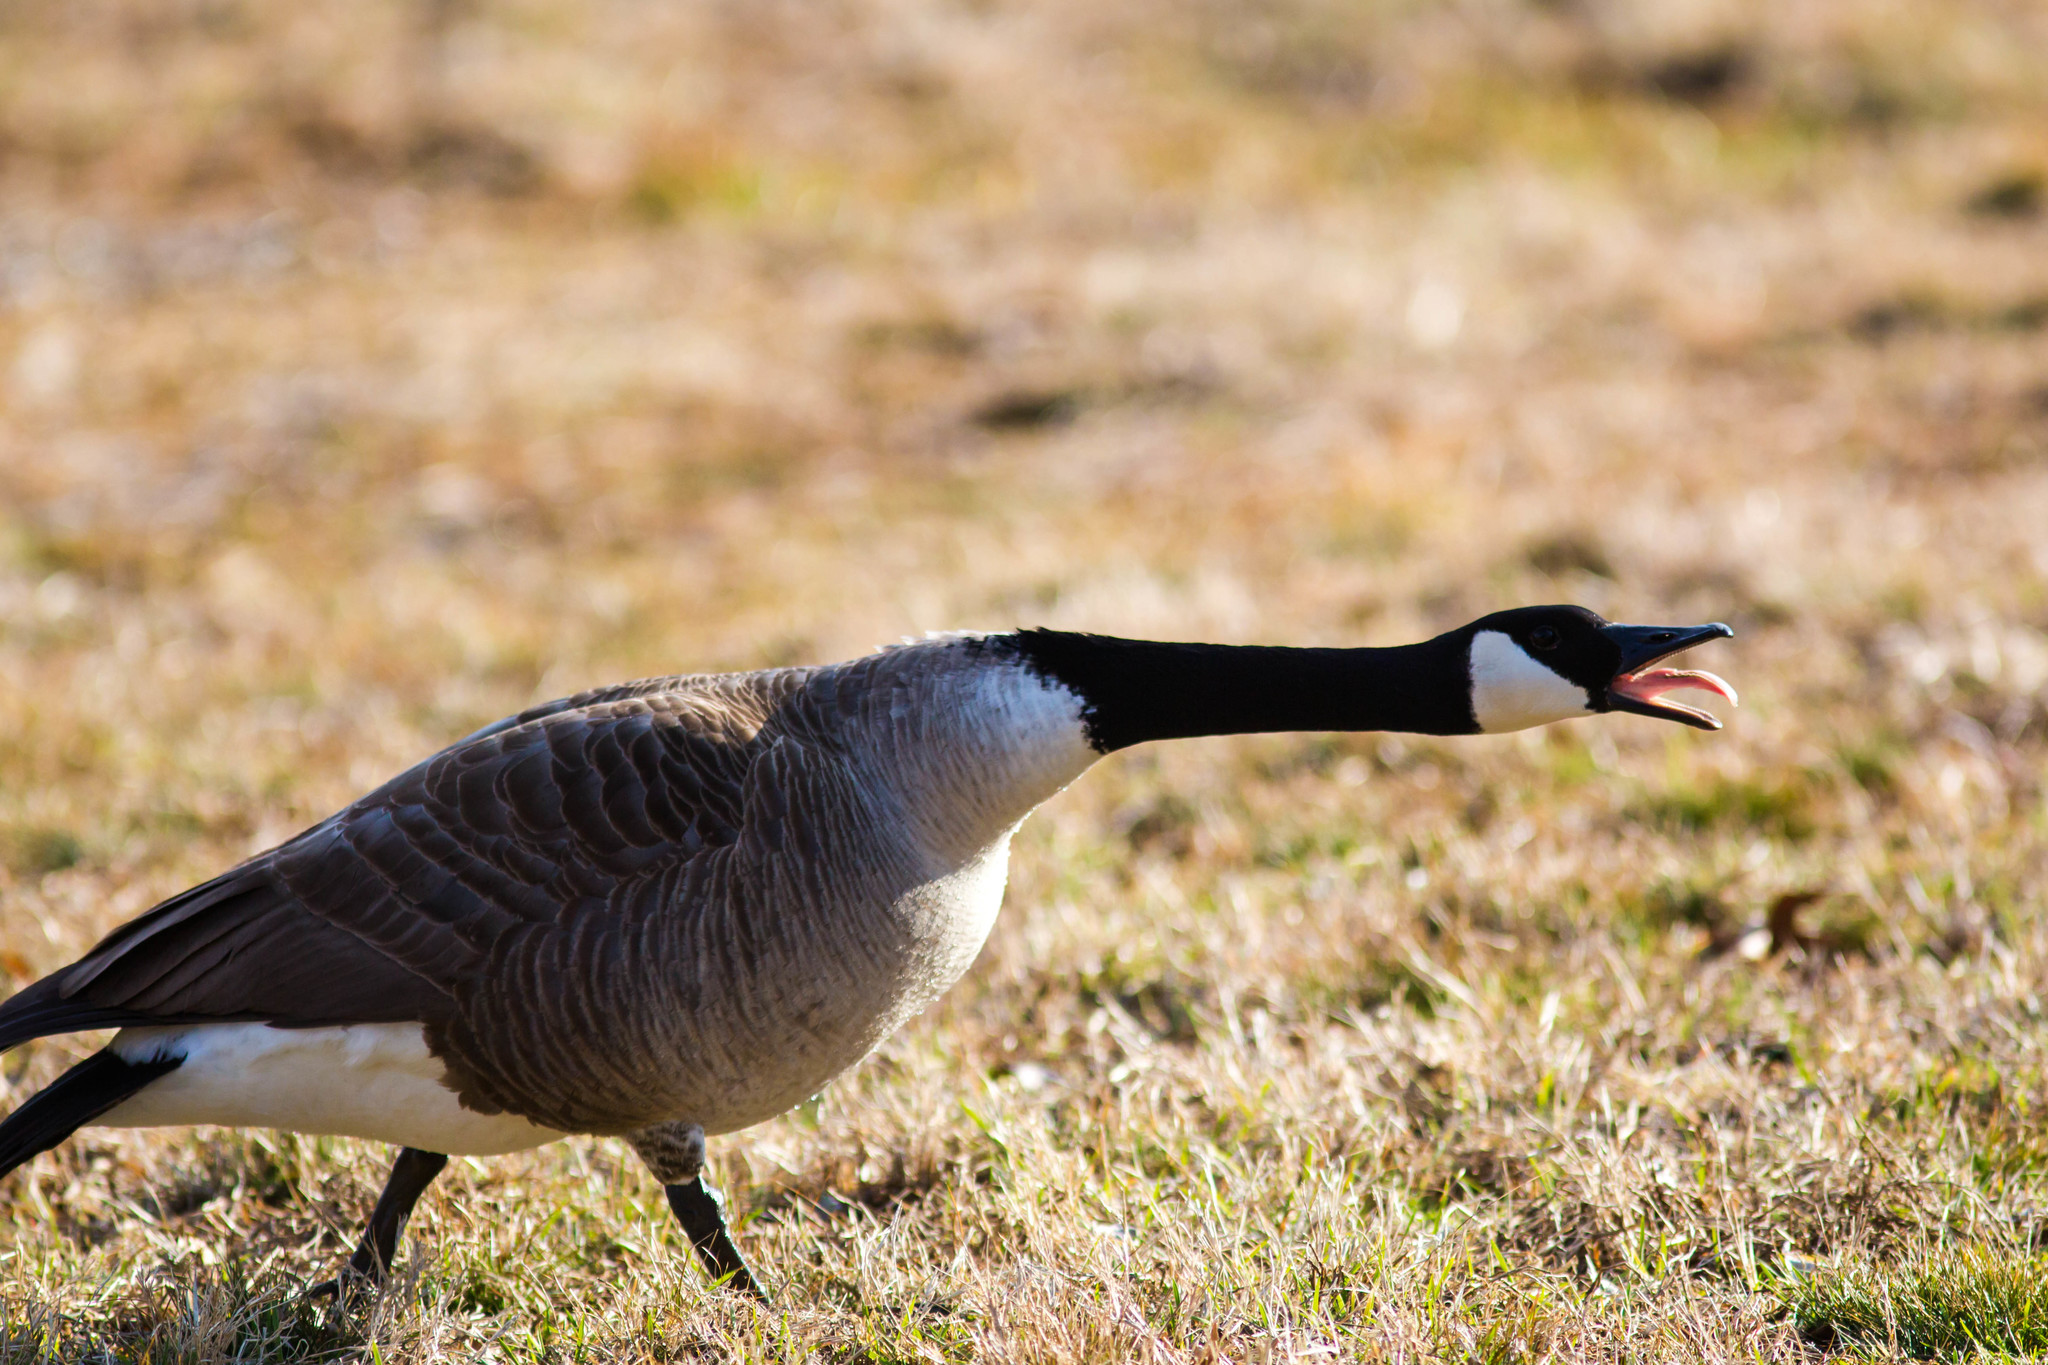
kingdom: Animalia
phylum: Chordata
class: Aves
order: Anseriformes
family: Anatidae
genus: Branta
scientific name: Branta canadensis
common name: Canada goose
